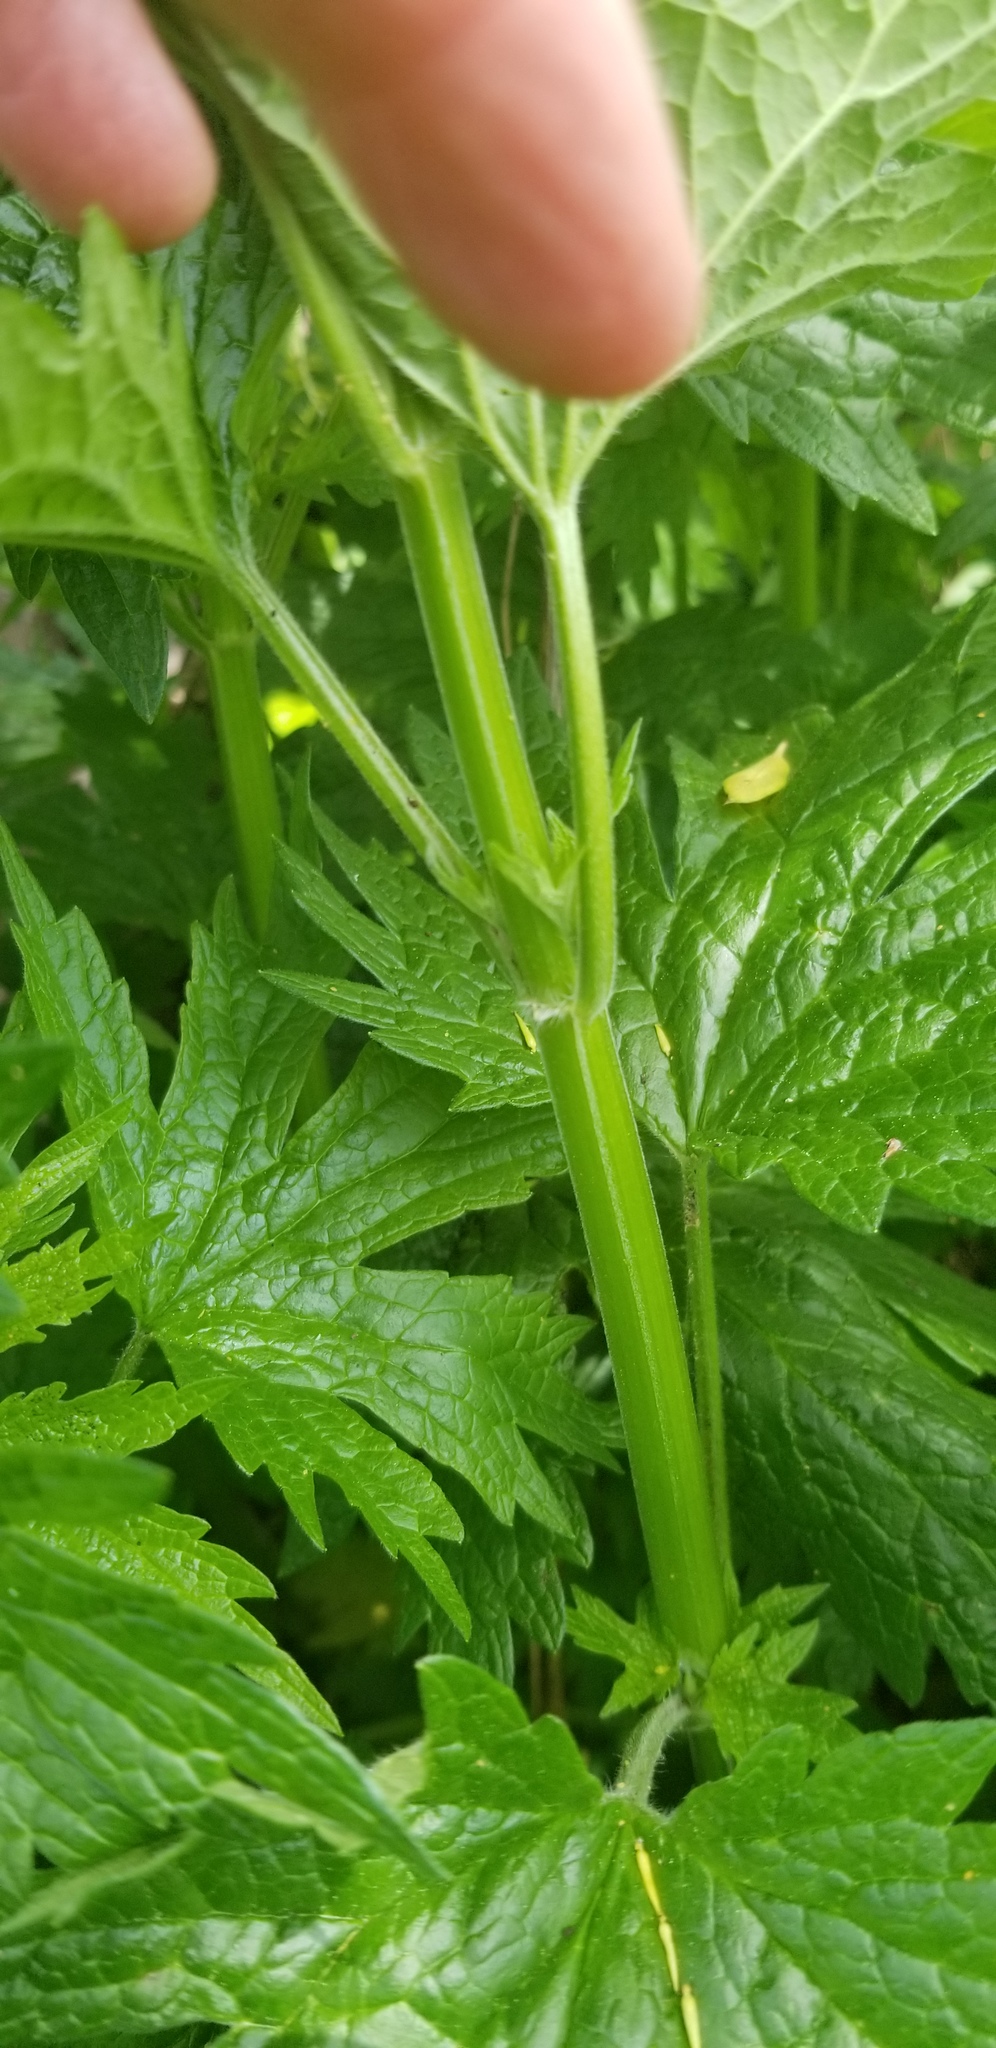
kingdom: Plantae
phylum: Tracheophyta
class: Magnoliopsida
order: Lamiales
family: Lamiaceae
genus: Leonurus
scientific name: Leonurus cardiaca
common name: Motherwort
